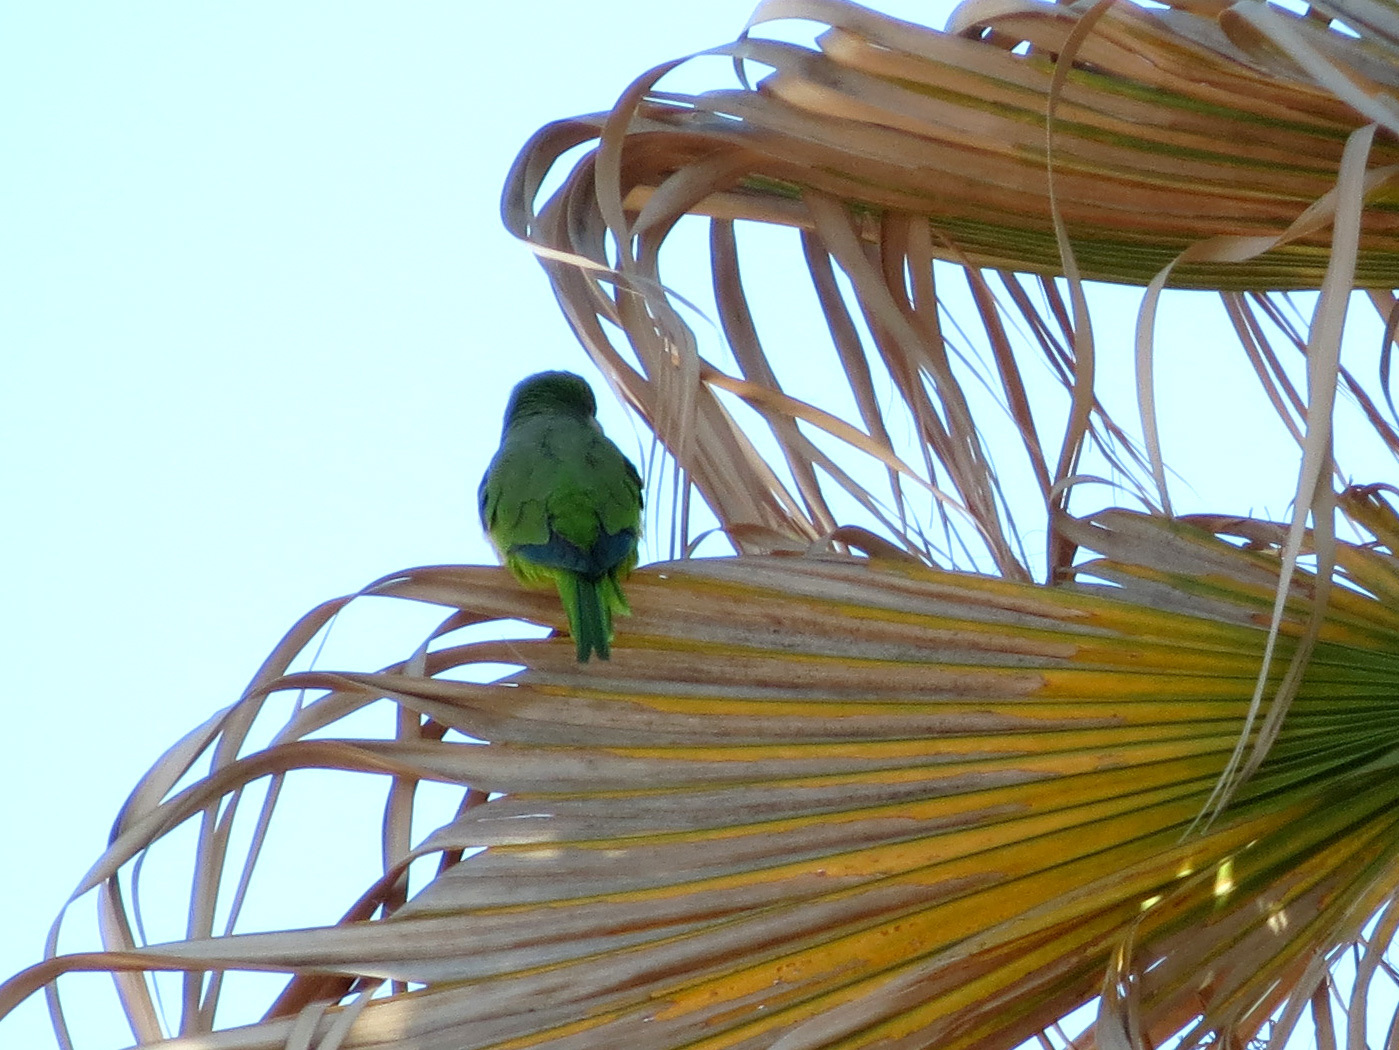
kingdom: Animalia
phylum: Chordata
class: Aves
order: Psittaciformes
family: Psittacidae
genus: Myiopsitta
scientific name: Myiopsitta monachus
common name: Monk parakeet
